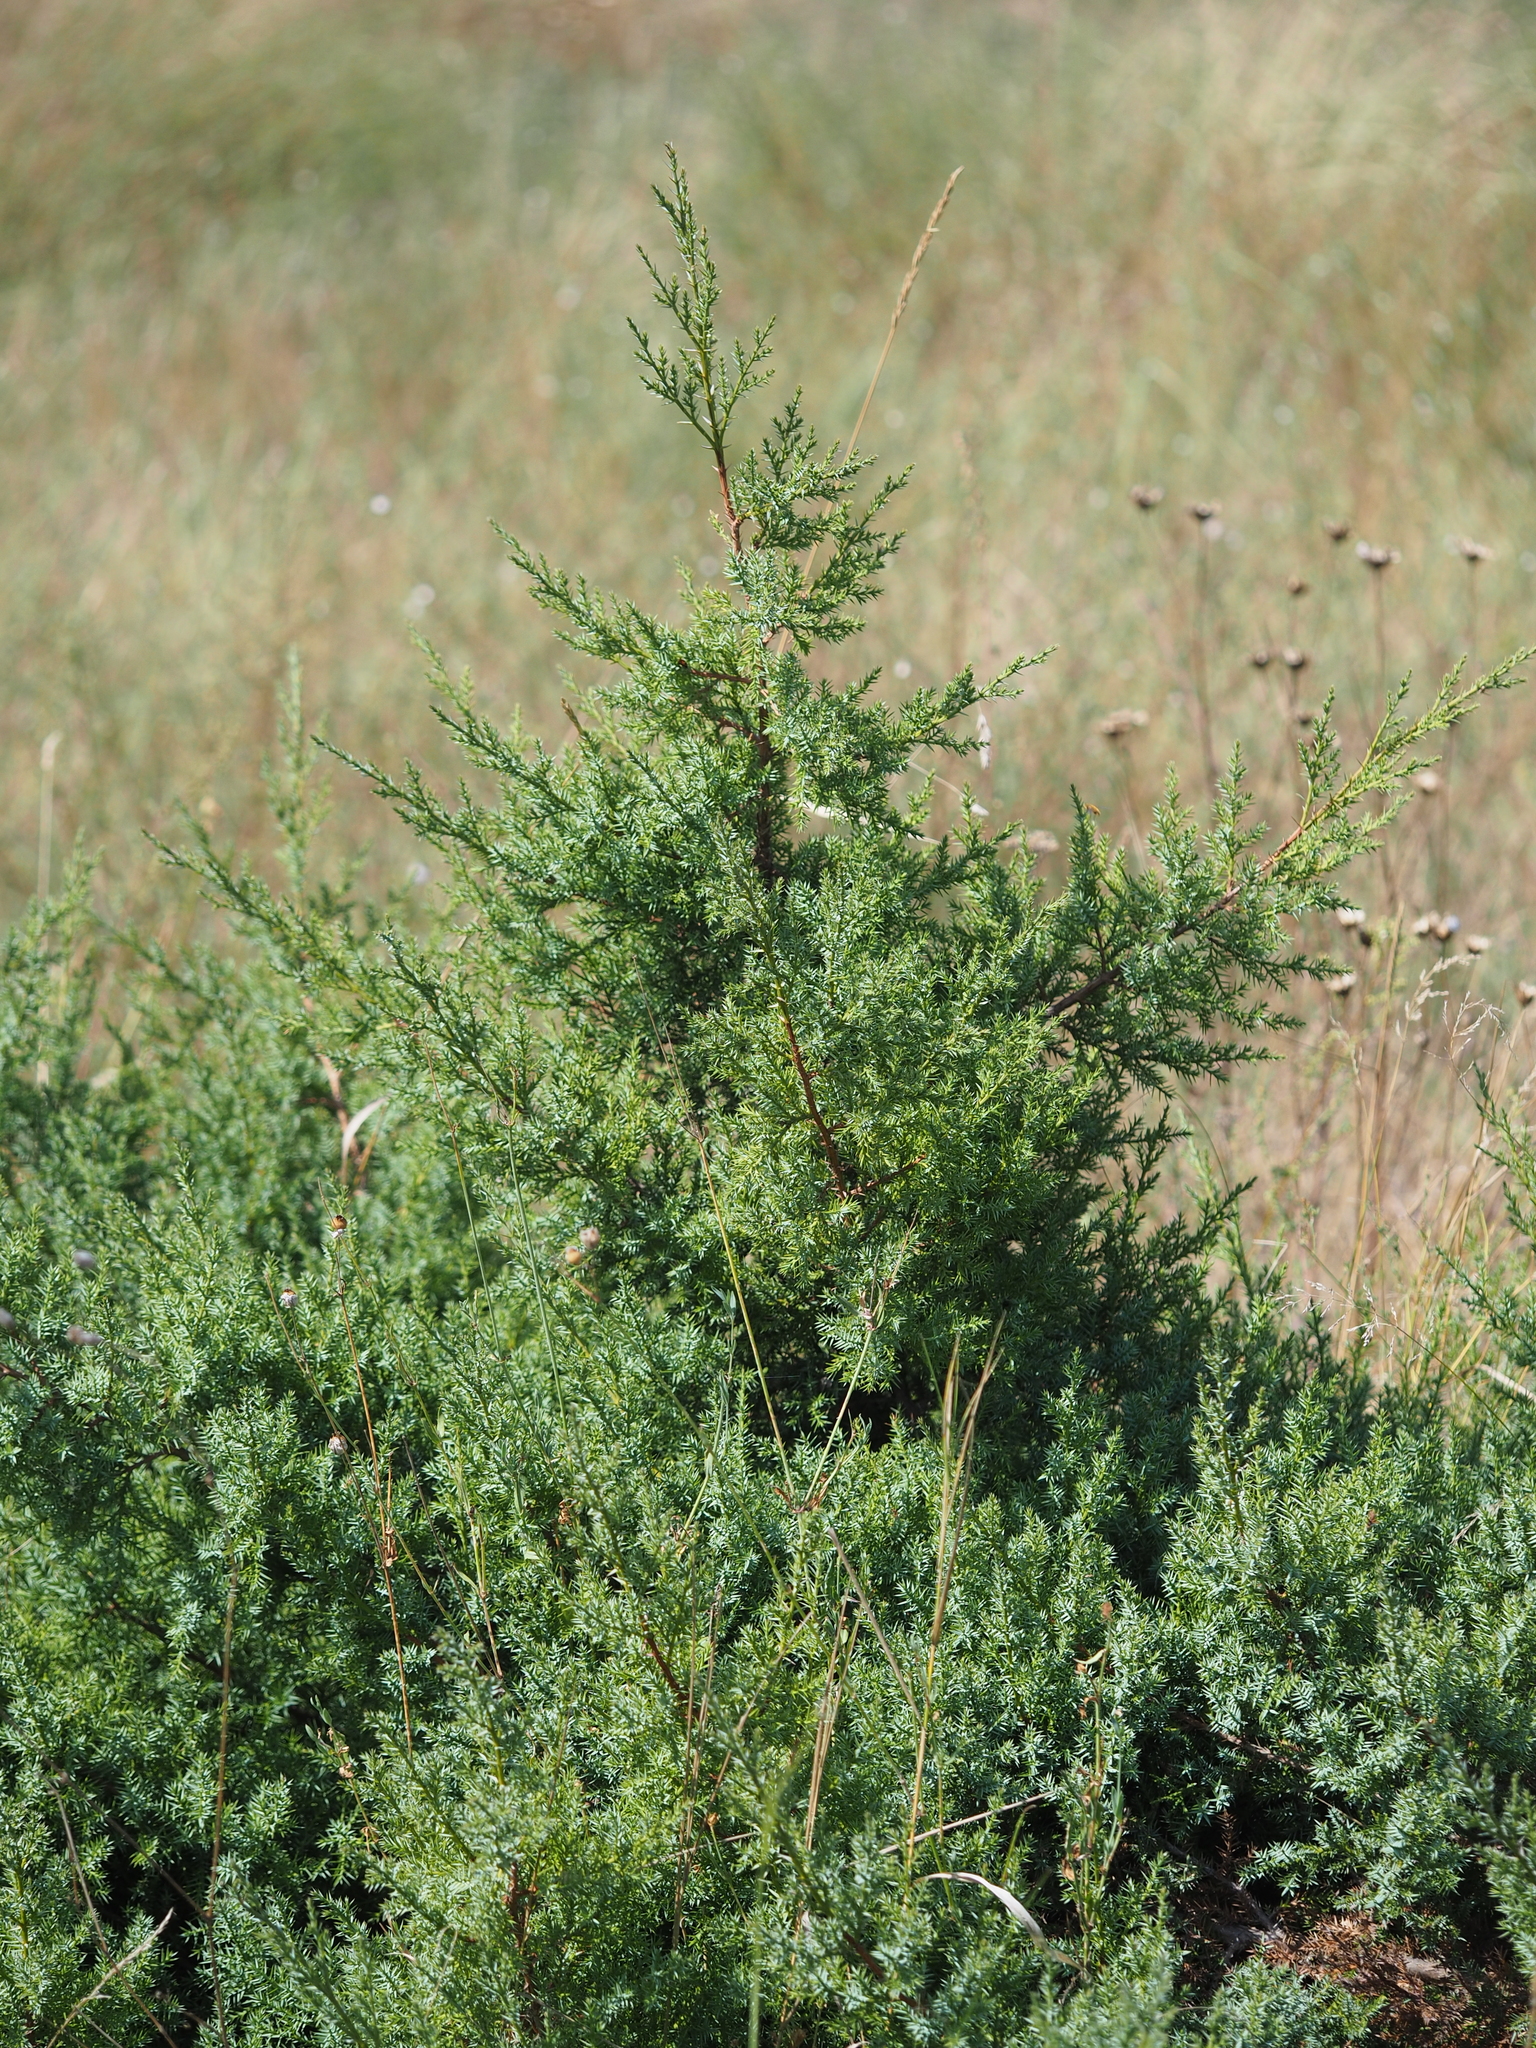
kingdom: Plantae
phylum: Tracheophyta
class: Pinopsida
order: Pinales
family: Cupressaceae
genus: Juniperus
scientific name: Juniperus communis
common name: Common juniper
